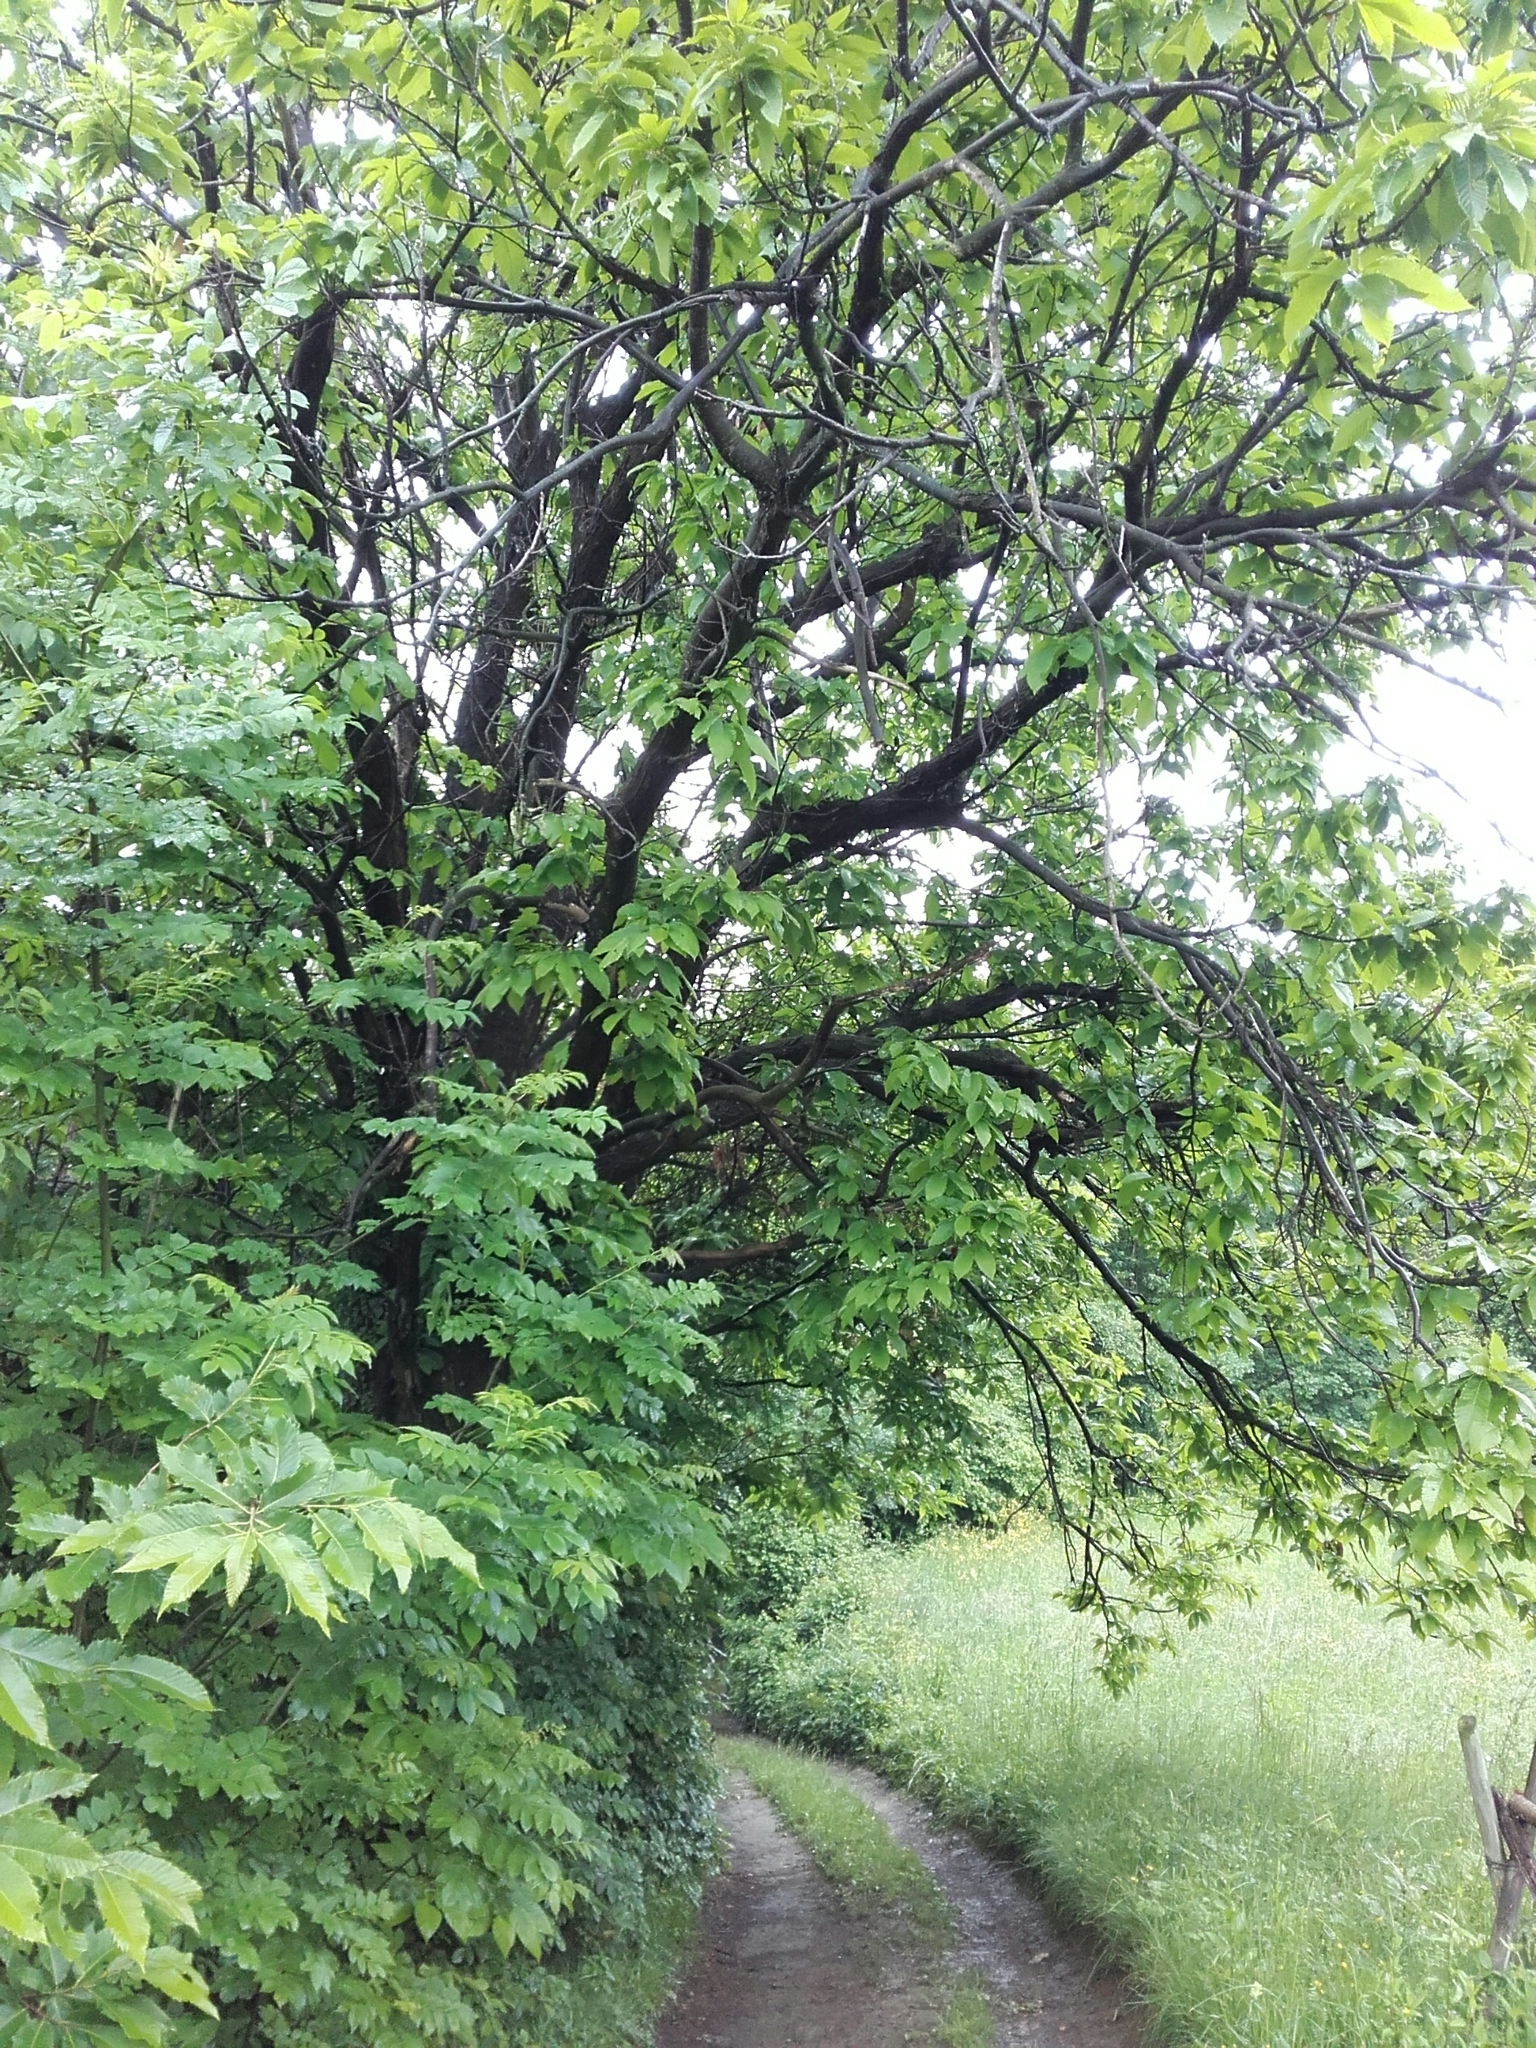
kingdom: Plantae
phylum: Tracheophyta
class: Magnoliopsida
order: Fagales
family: Fagaceae
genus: Castanea
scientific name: Castanea sativa
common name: Sweet chestnut
